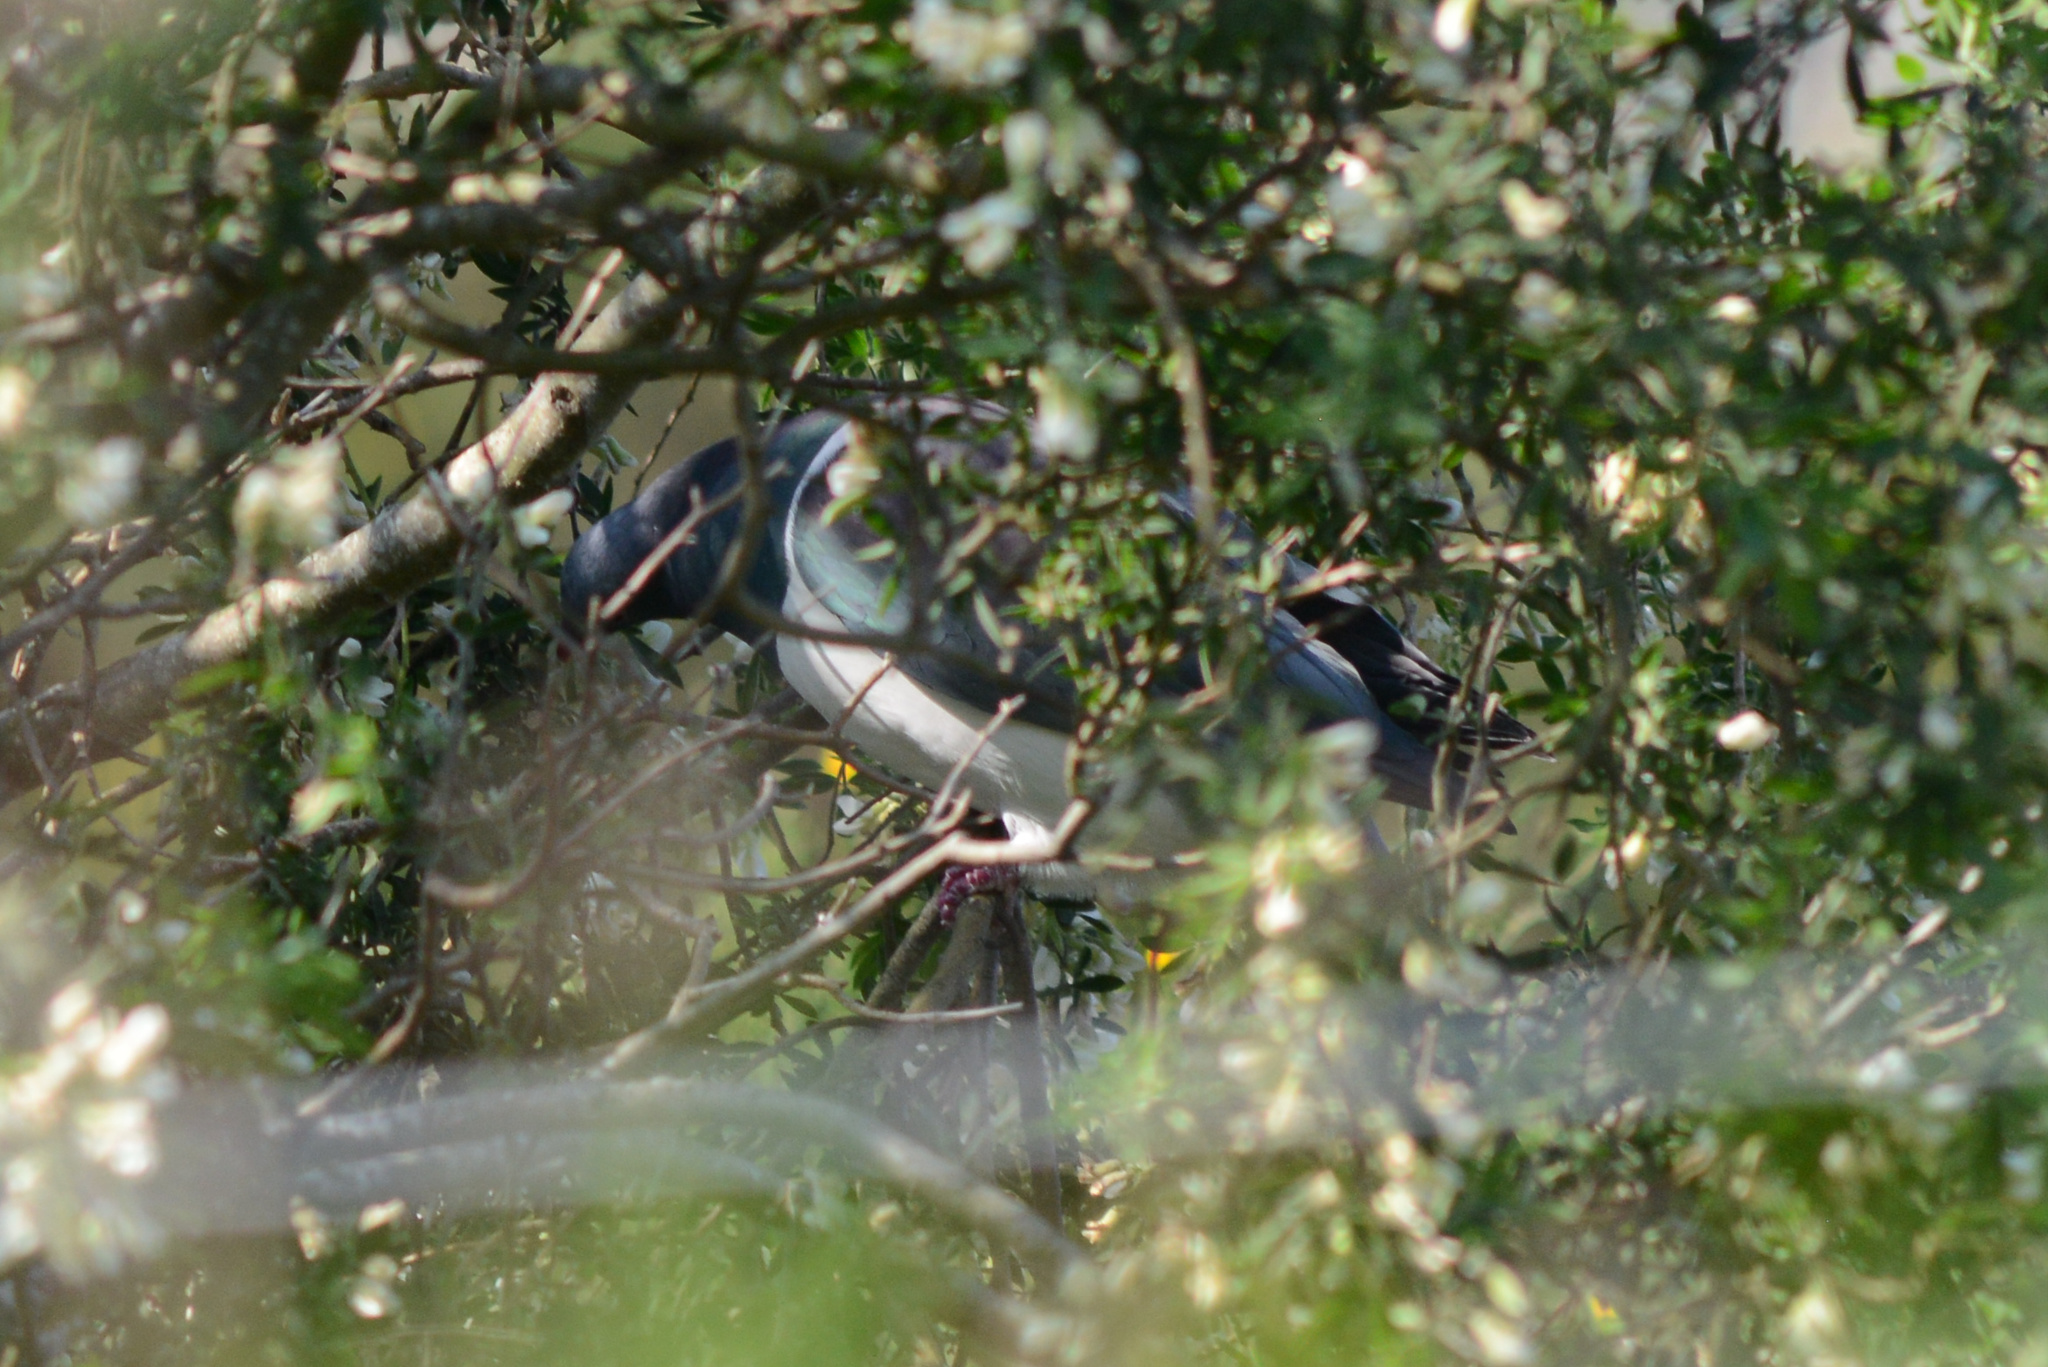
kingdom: Animalia
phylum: Chordata
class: Aves
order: Columbiformes
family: Columbidae
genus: Hemiphaga
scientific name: Hemiphaga novaeseelandiae
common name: New zealand pigeon
